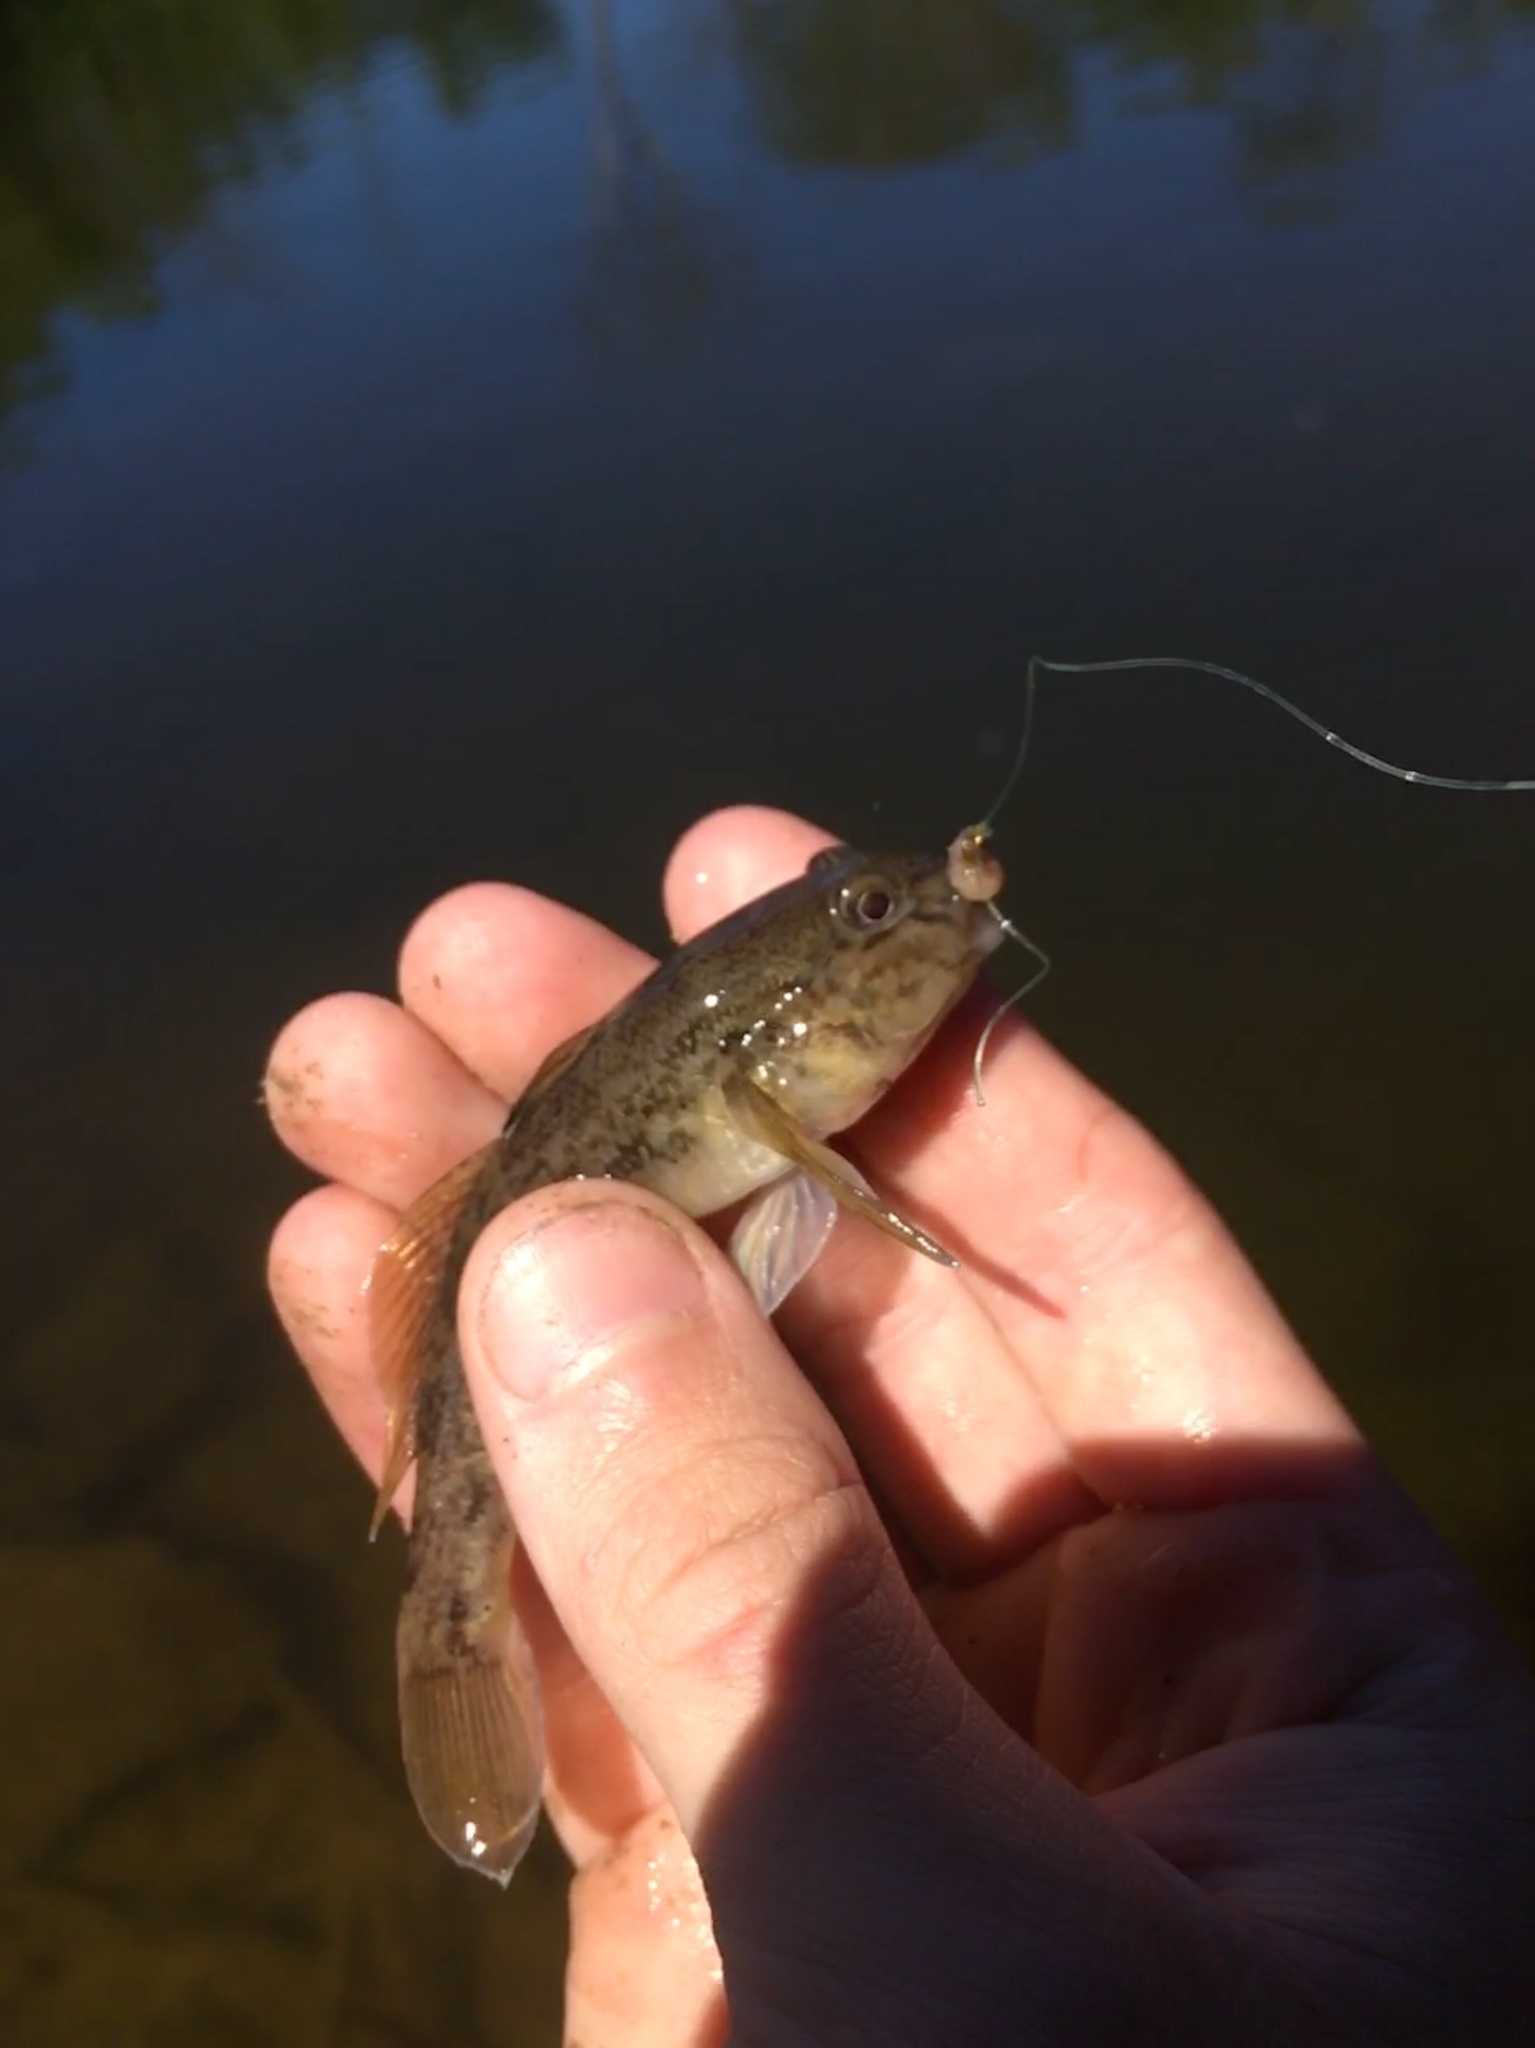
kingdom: Animalia
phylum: Chordata
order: Perciformes
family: Gobiidae
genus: Neogobius
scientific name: Neogobius melanostomus
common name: Round goby
